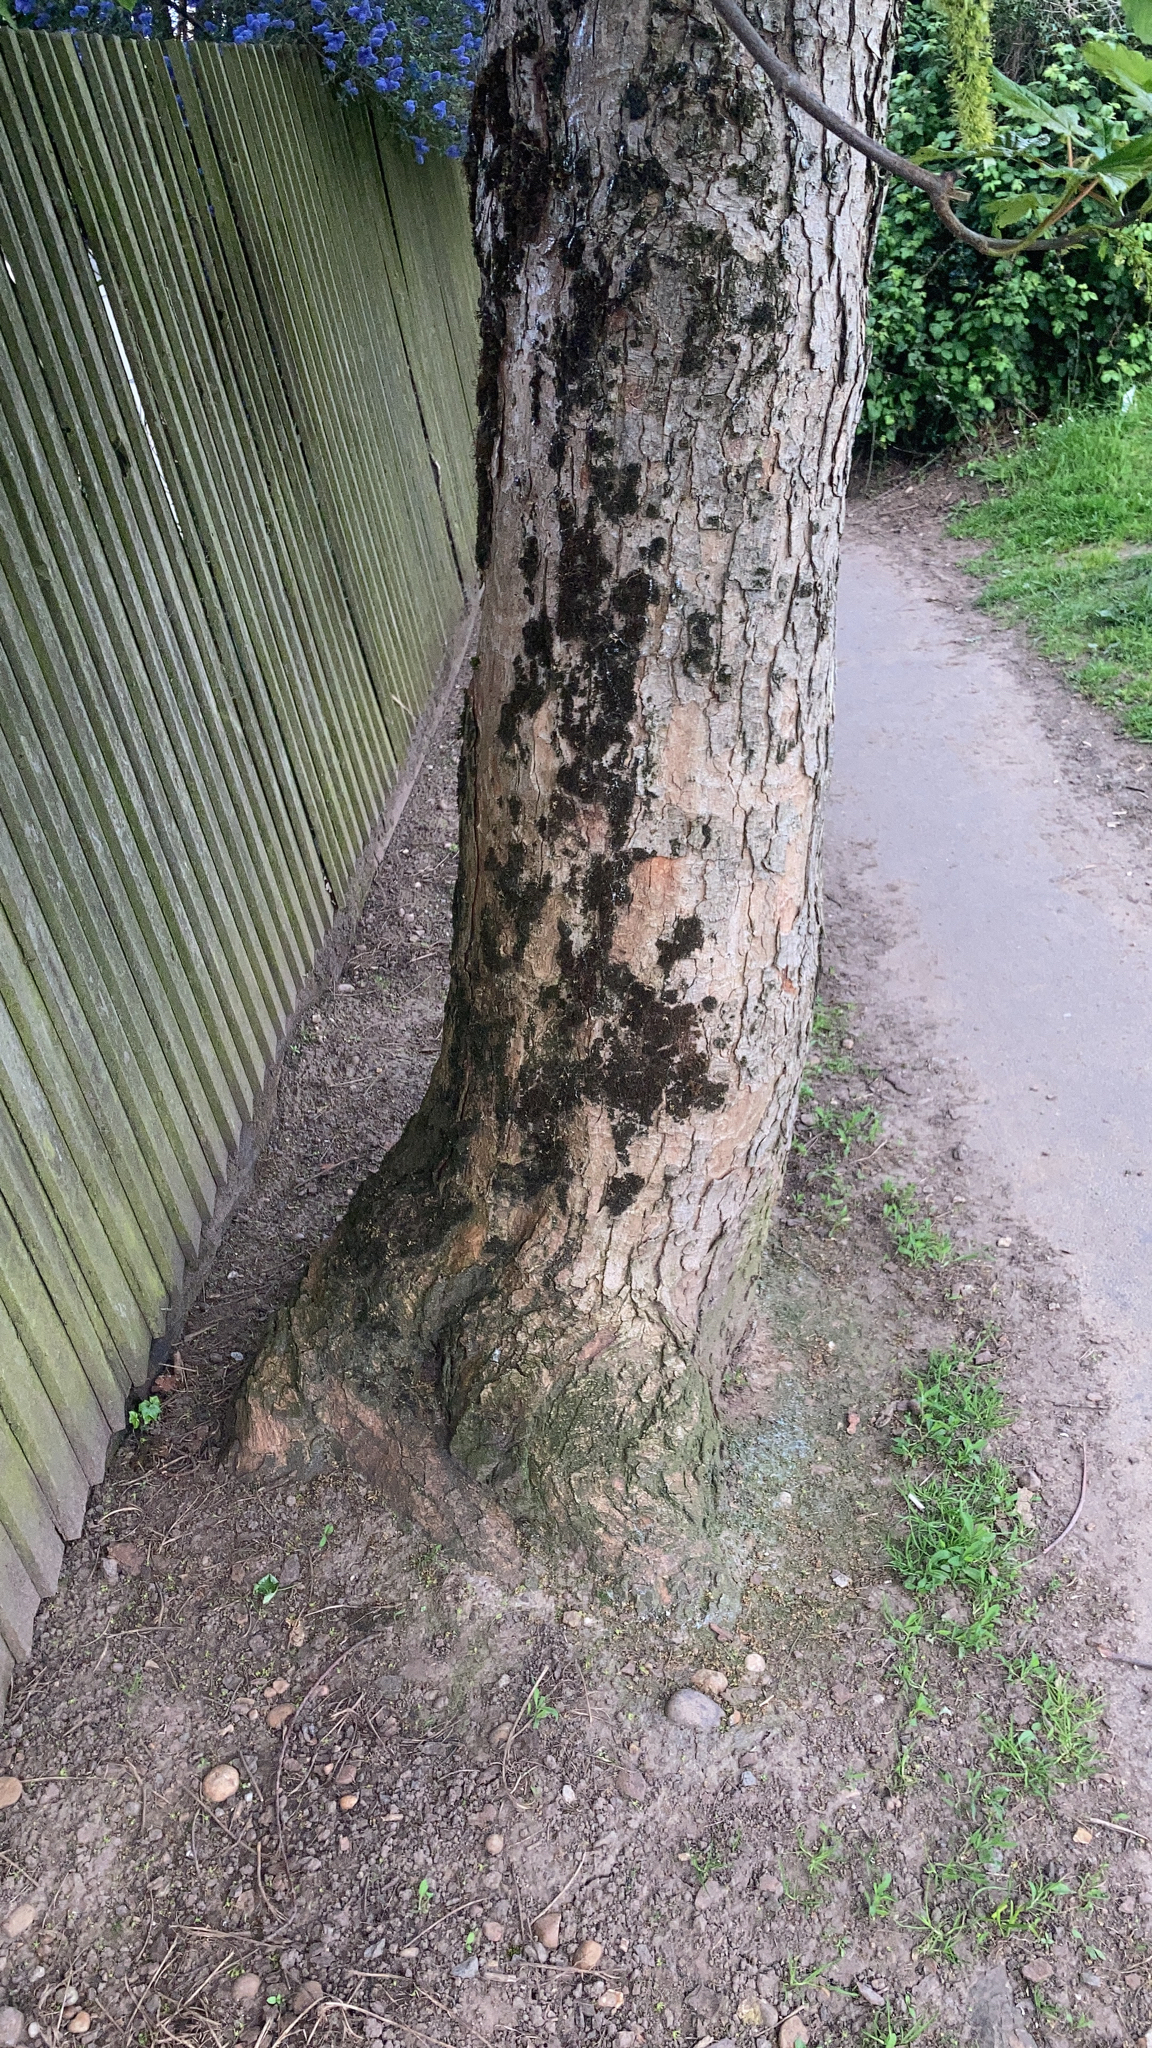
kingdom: Plantae
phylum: Tracheophyta
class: Magnoliopsida
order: Sapindales
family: Sapindaceae
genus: Acer
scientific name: Acer pseudoplatanus
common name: Sycamore
